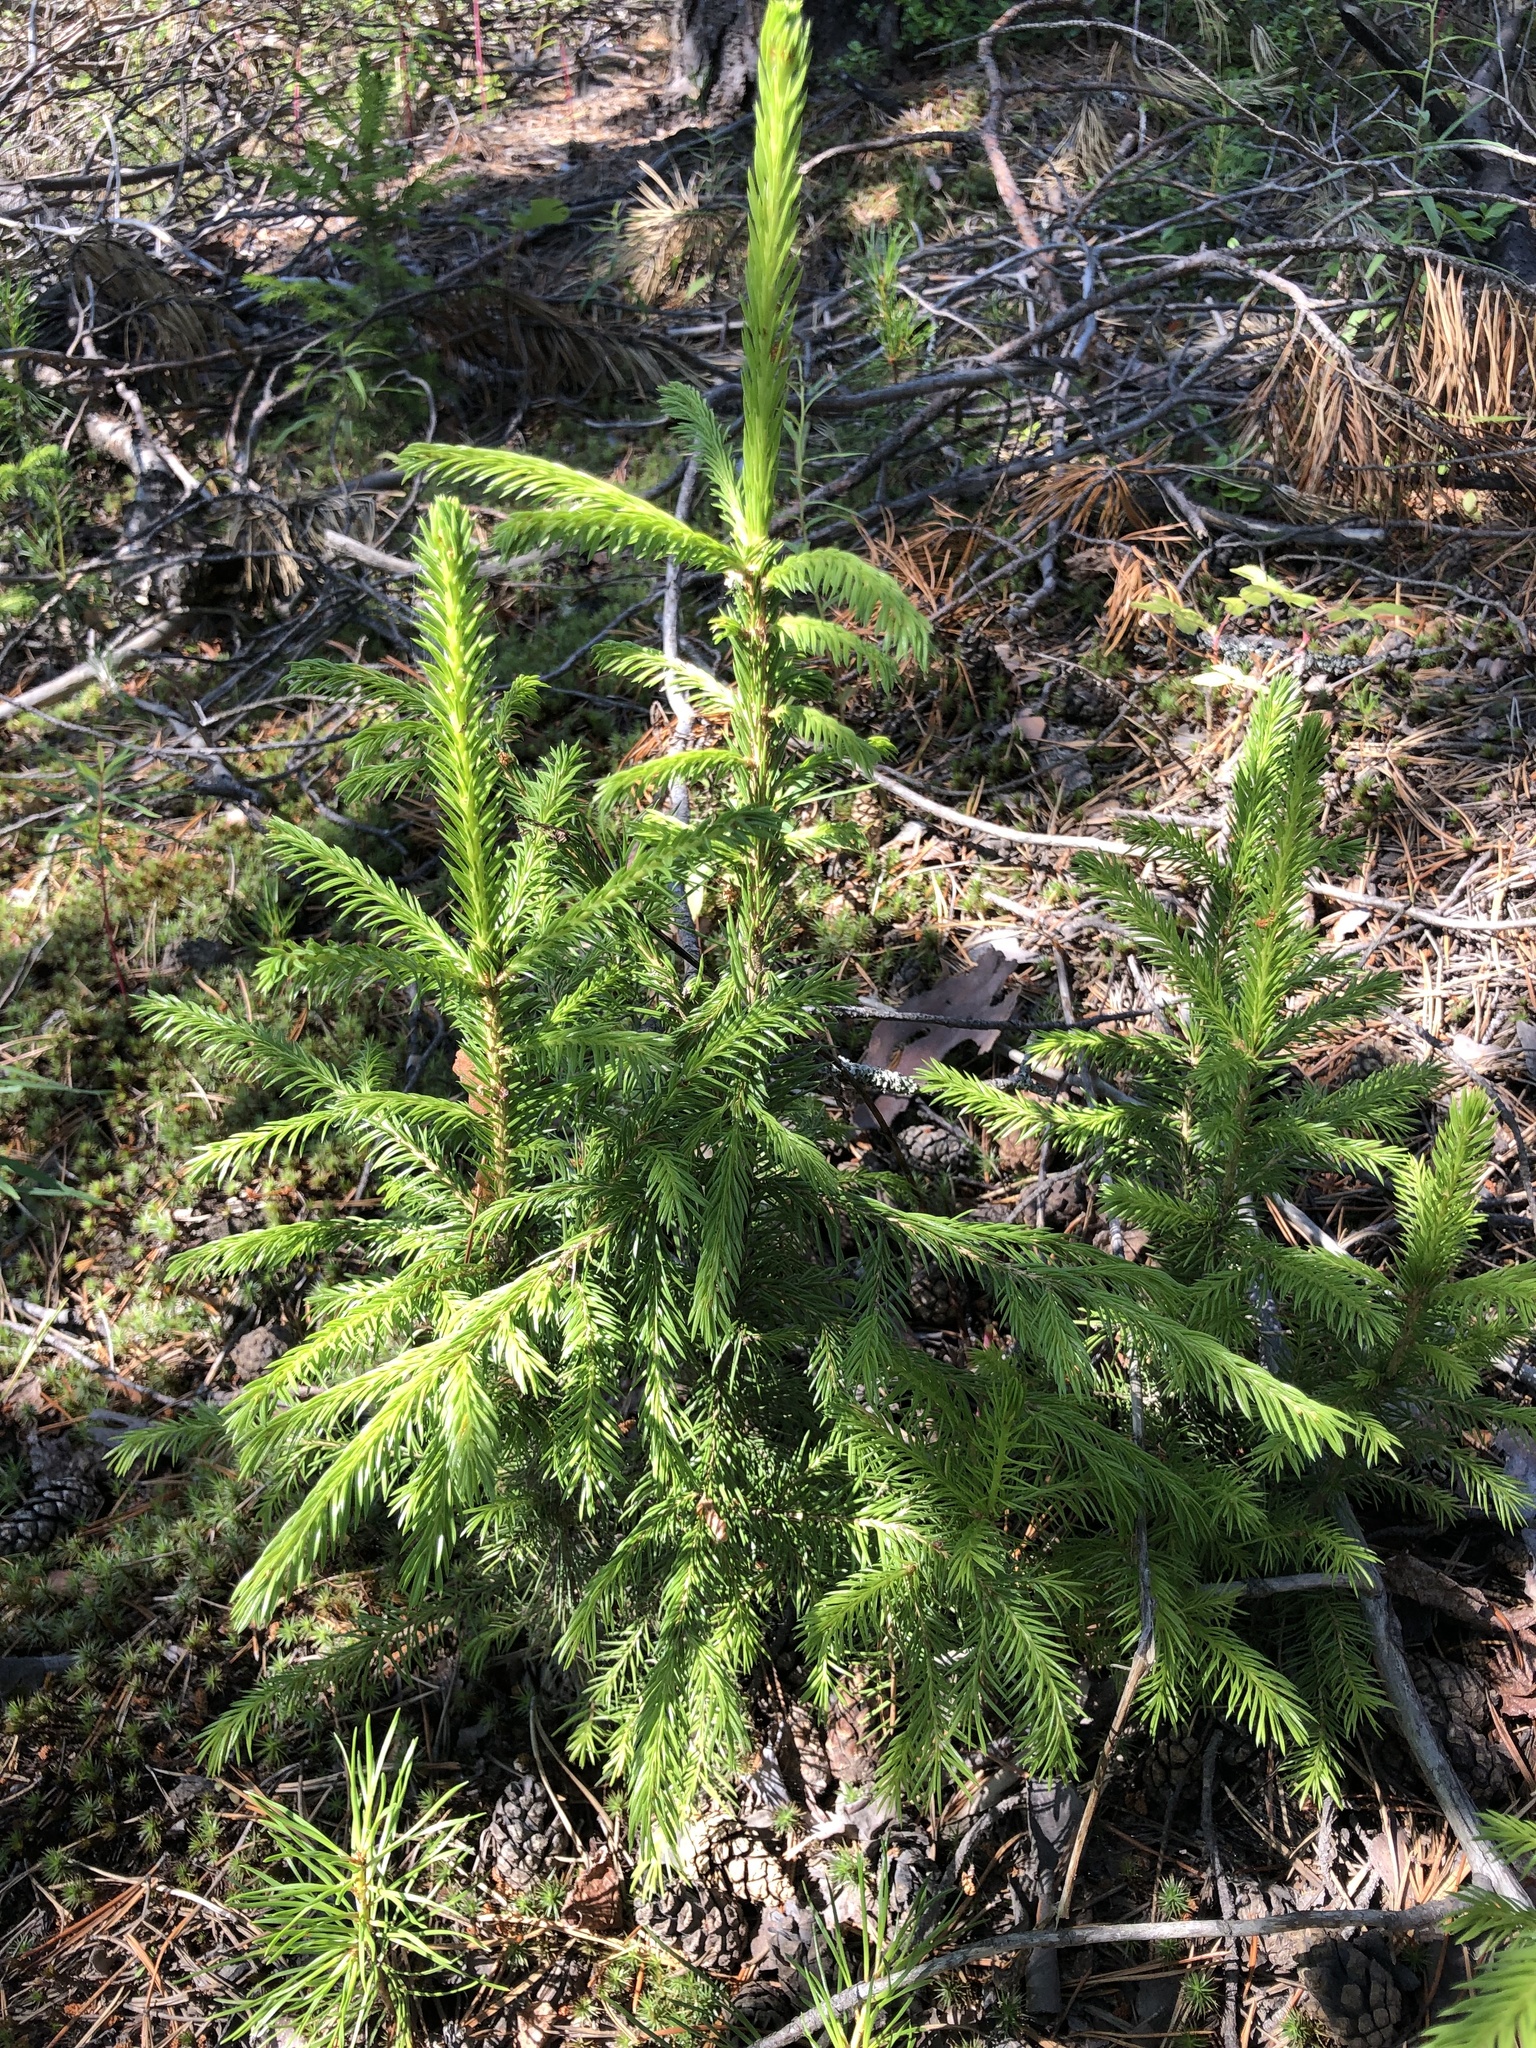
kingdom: Plantae
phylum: Tracheophyta
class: Pinopsida
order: Pinales
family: Pinaceae
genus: Picea
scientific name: Picea obovata
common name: Siberian spruce
